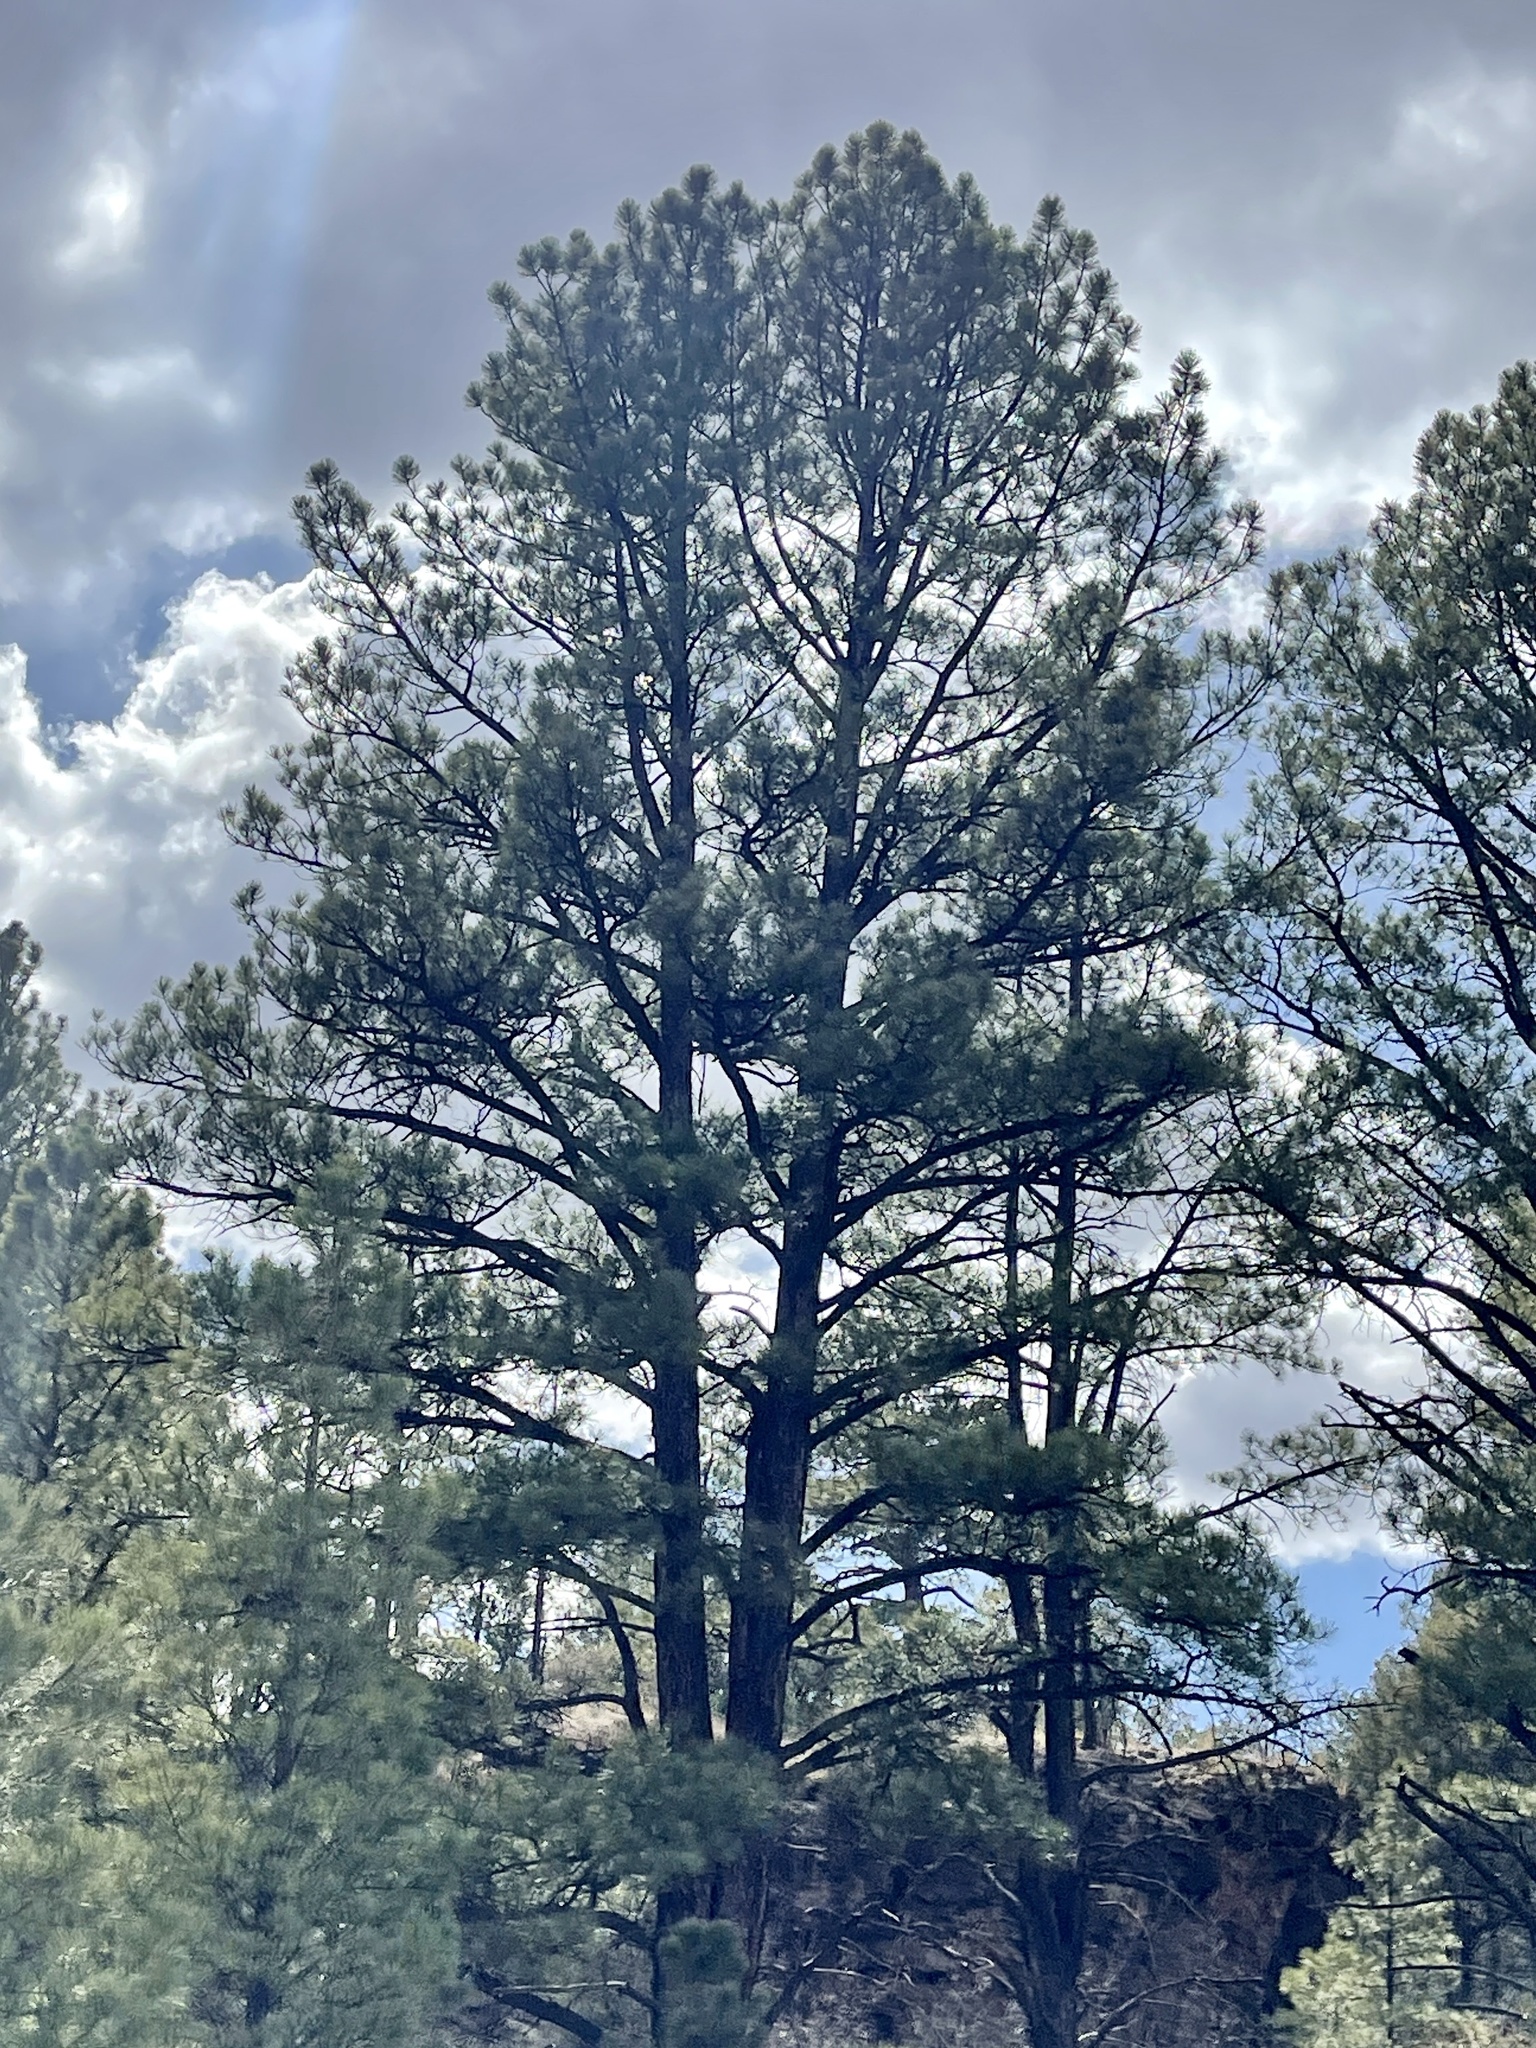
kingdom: Plantae
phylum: Tracheophyta
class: Pinopsida
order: Pinales
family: Pinaceae
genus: Pinus
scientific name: Pinus ponderosa
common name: Western yellow-pine
